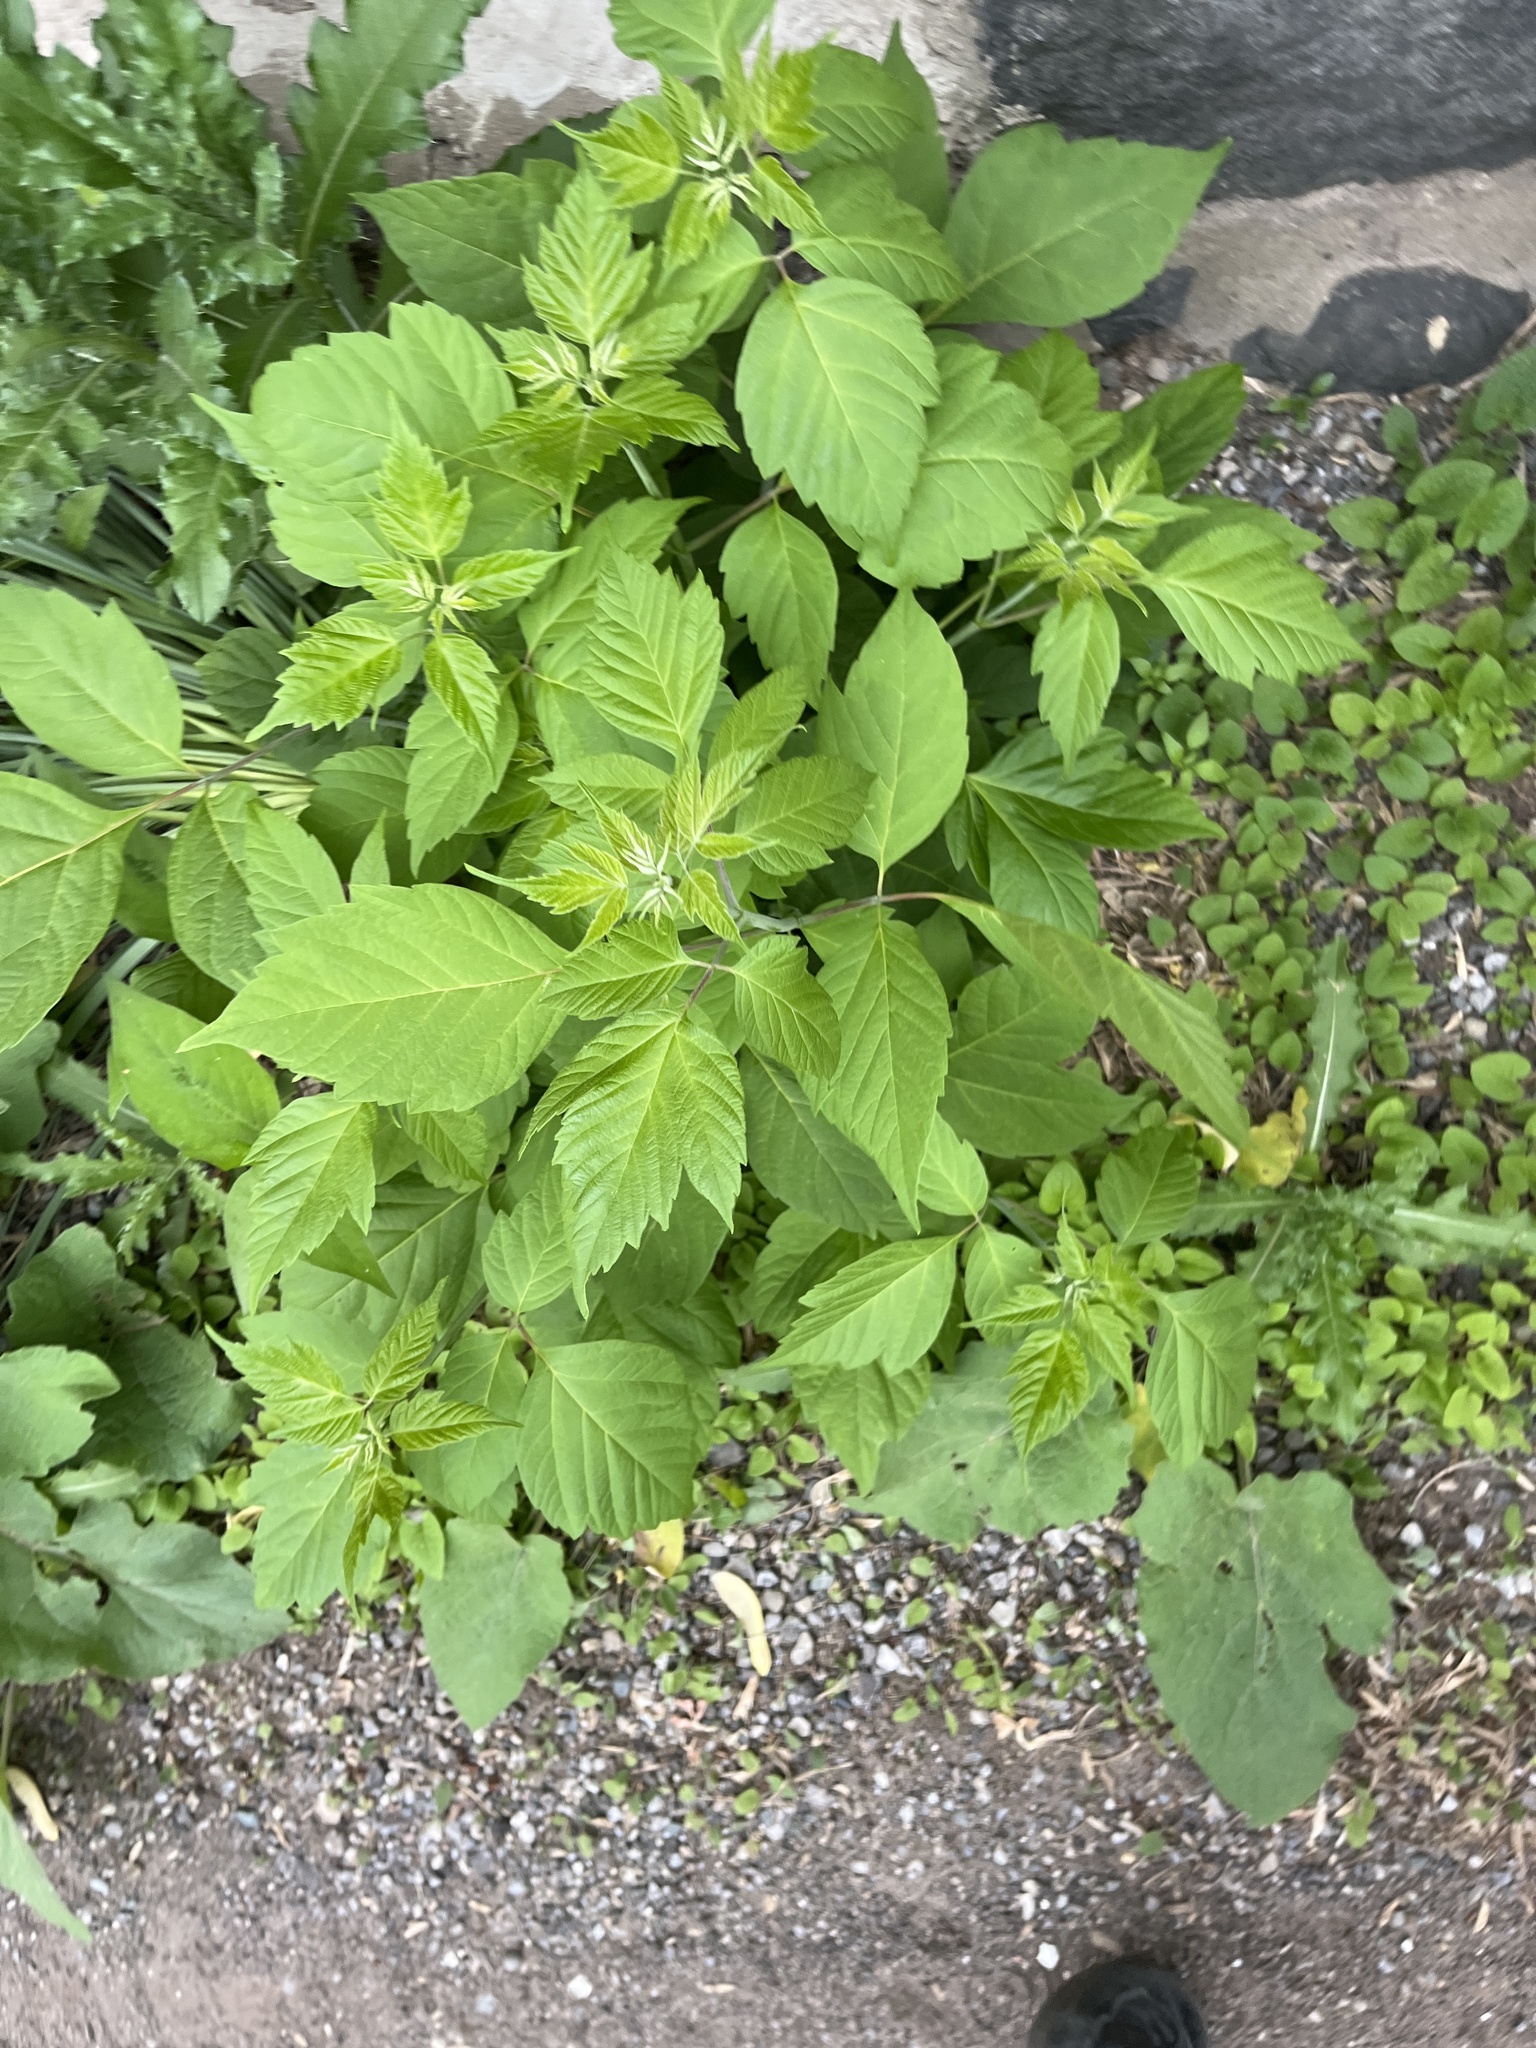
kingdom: Plantae
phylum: Tracheophyta
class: Magnoliopsida
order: Sapindales
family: Sapindaceae
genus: Acer
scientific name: Acer negundo
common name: Ashleaf maple
